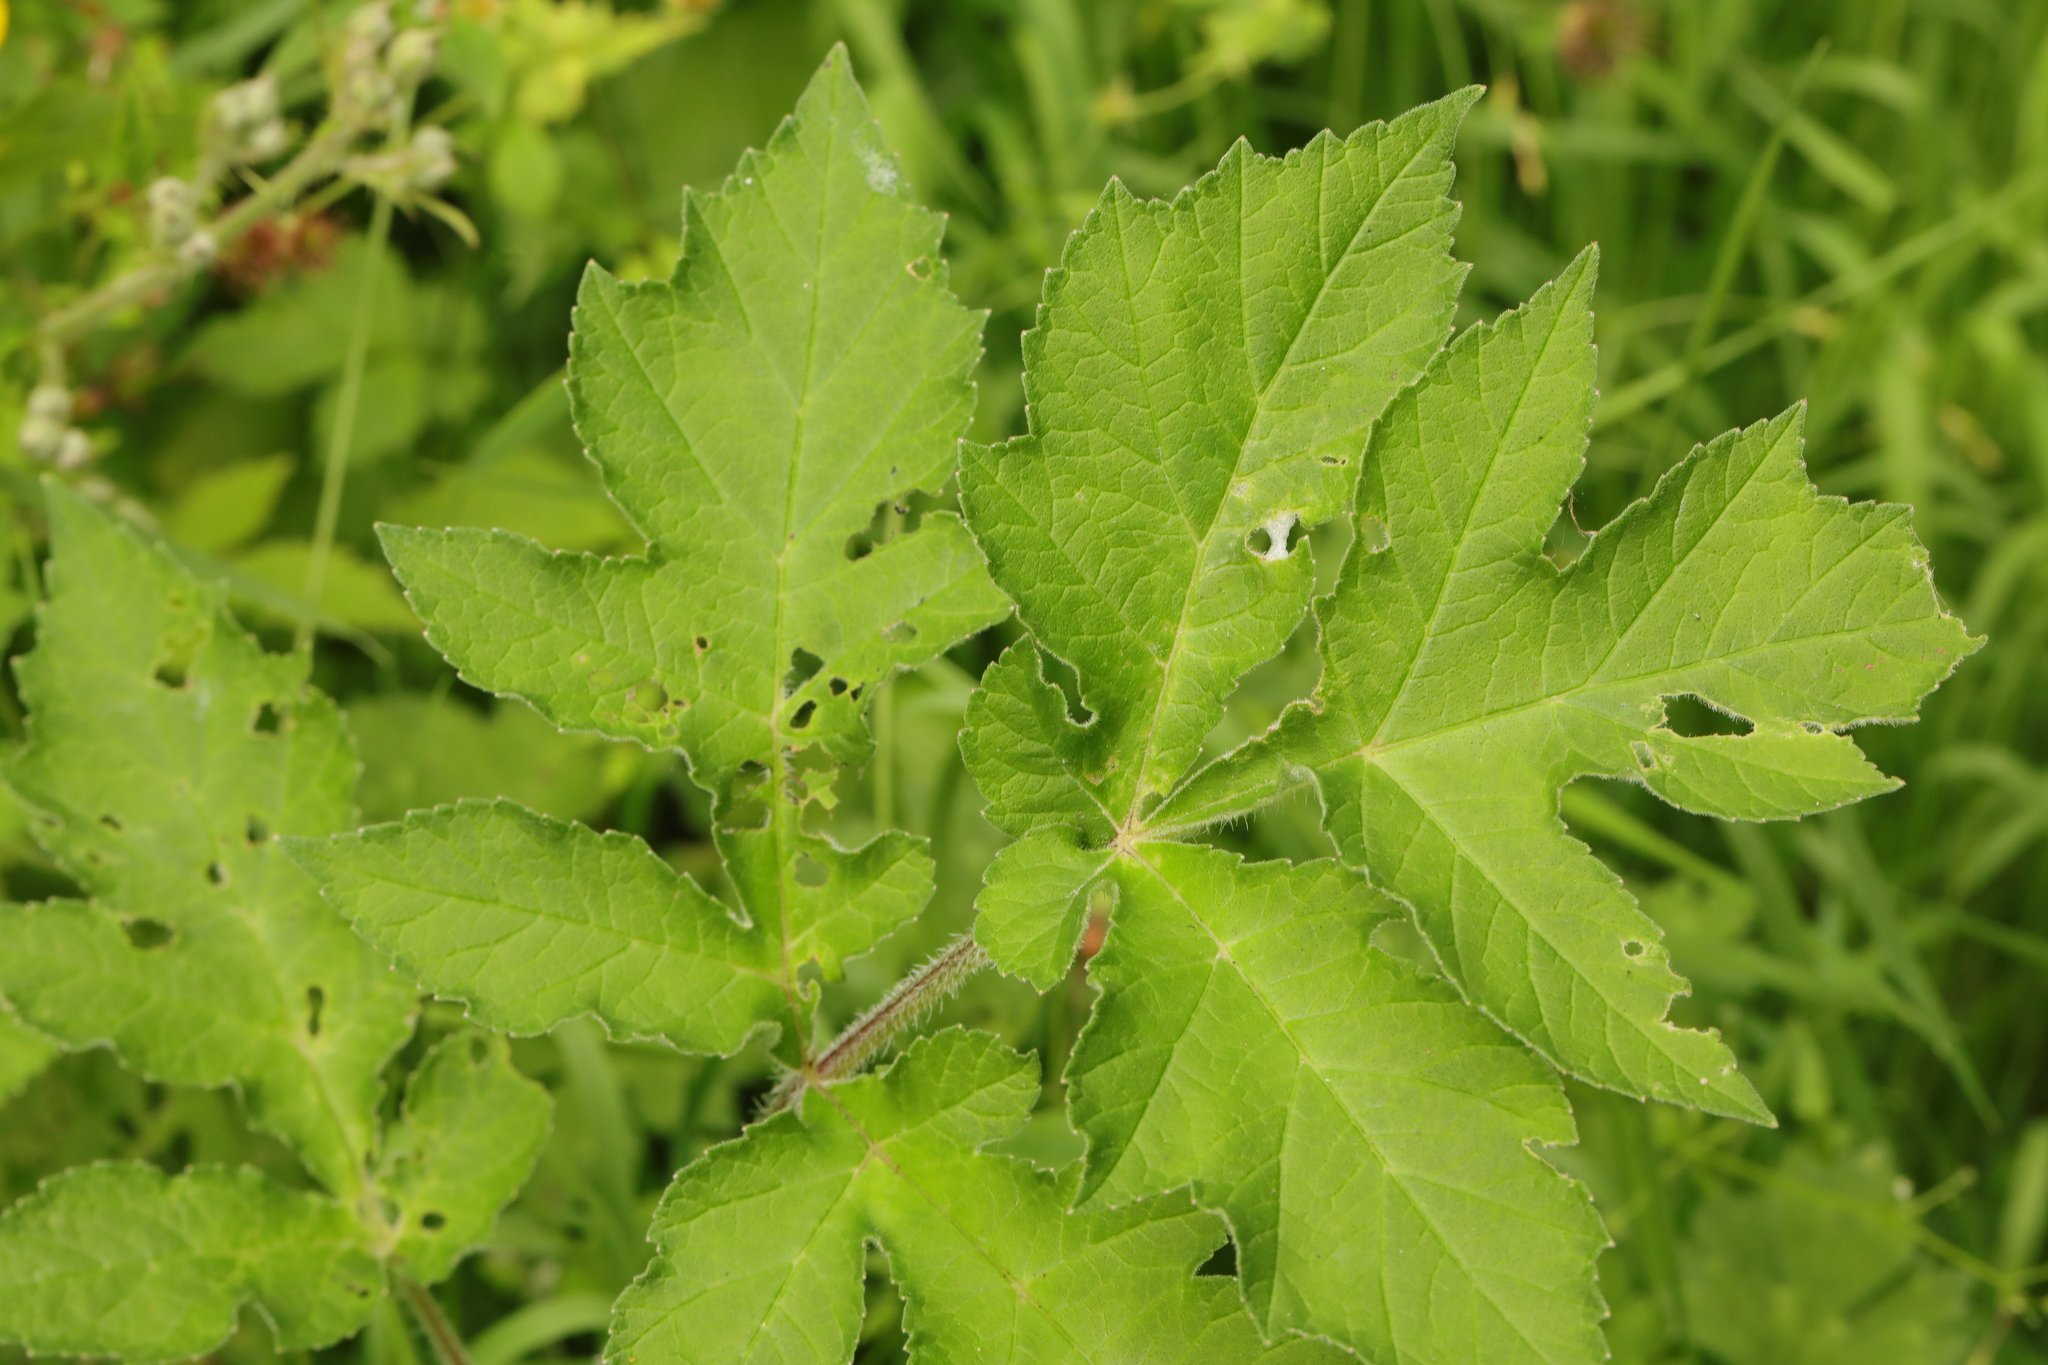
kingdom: Plantae
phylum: Tracheophyta
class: Magnoliopsida
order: Apiales
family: Apiaceae
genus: Heracleum
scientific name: Heracleum sphondylium
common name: Hogweed
